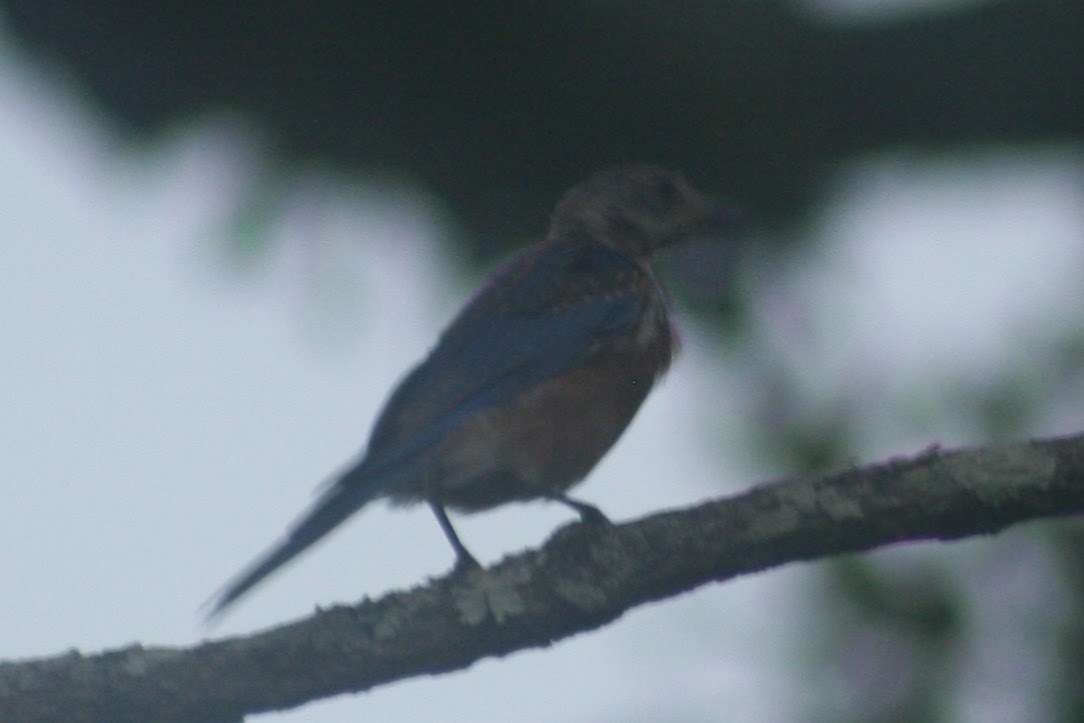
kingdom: Animalia
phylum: Chordata
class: Aves
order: Passeriformes
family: Turdidae
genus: Sialia
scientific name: Sialia sialis
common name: Eastern bluebird
